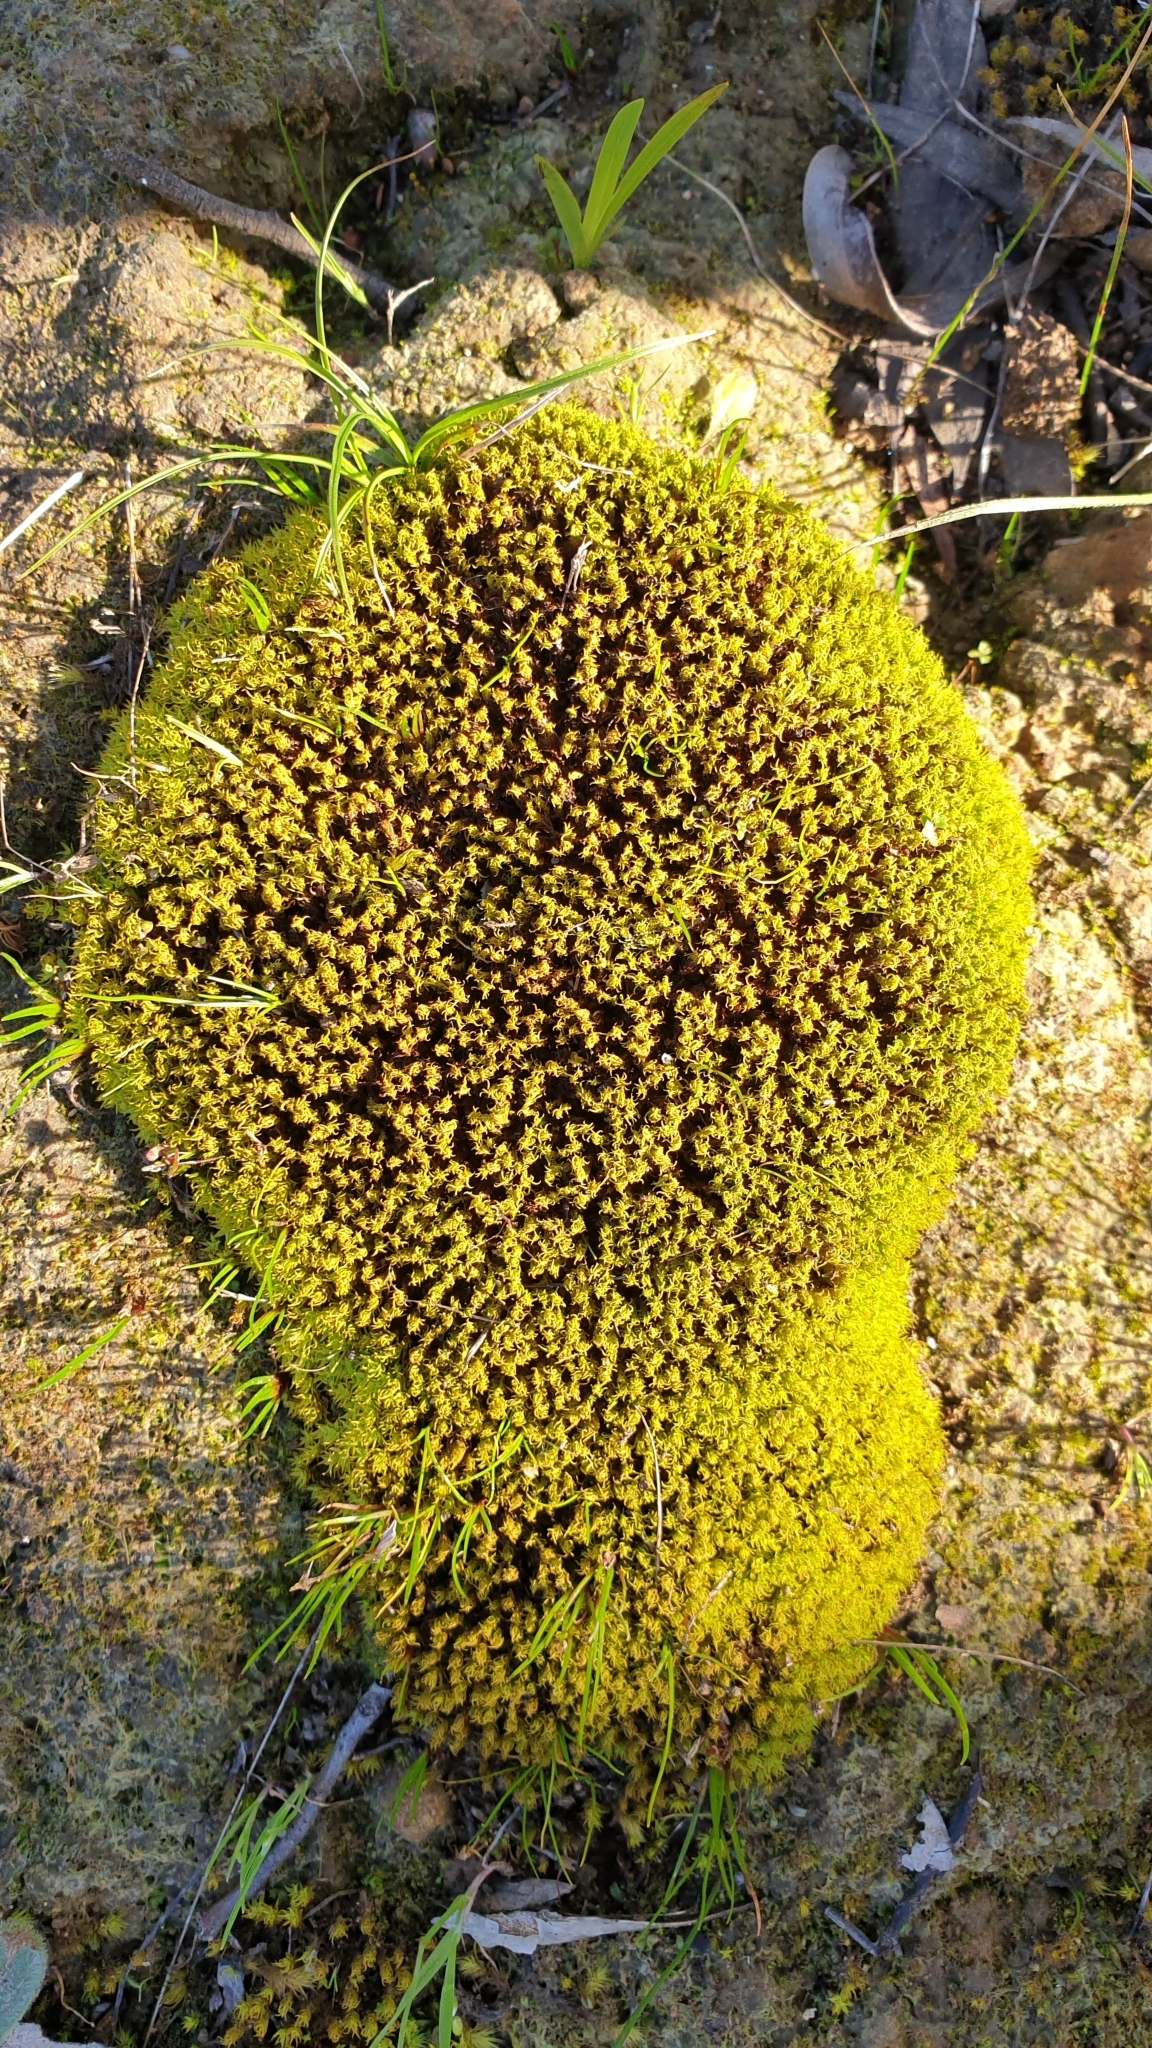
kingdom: Plantae
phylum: Bryophyta
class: Bryopsida
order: Pottiales
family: Pottiaceae
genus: Barbula
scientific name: Barbula calycina
